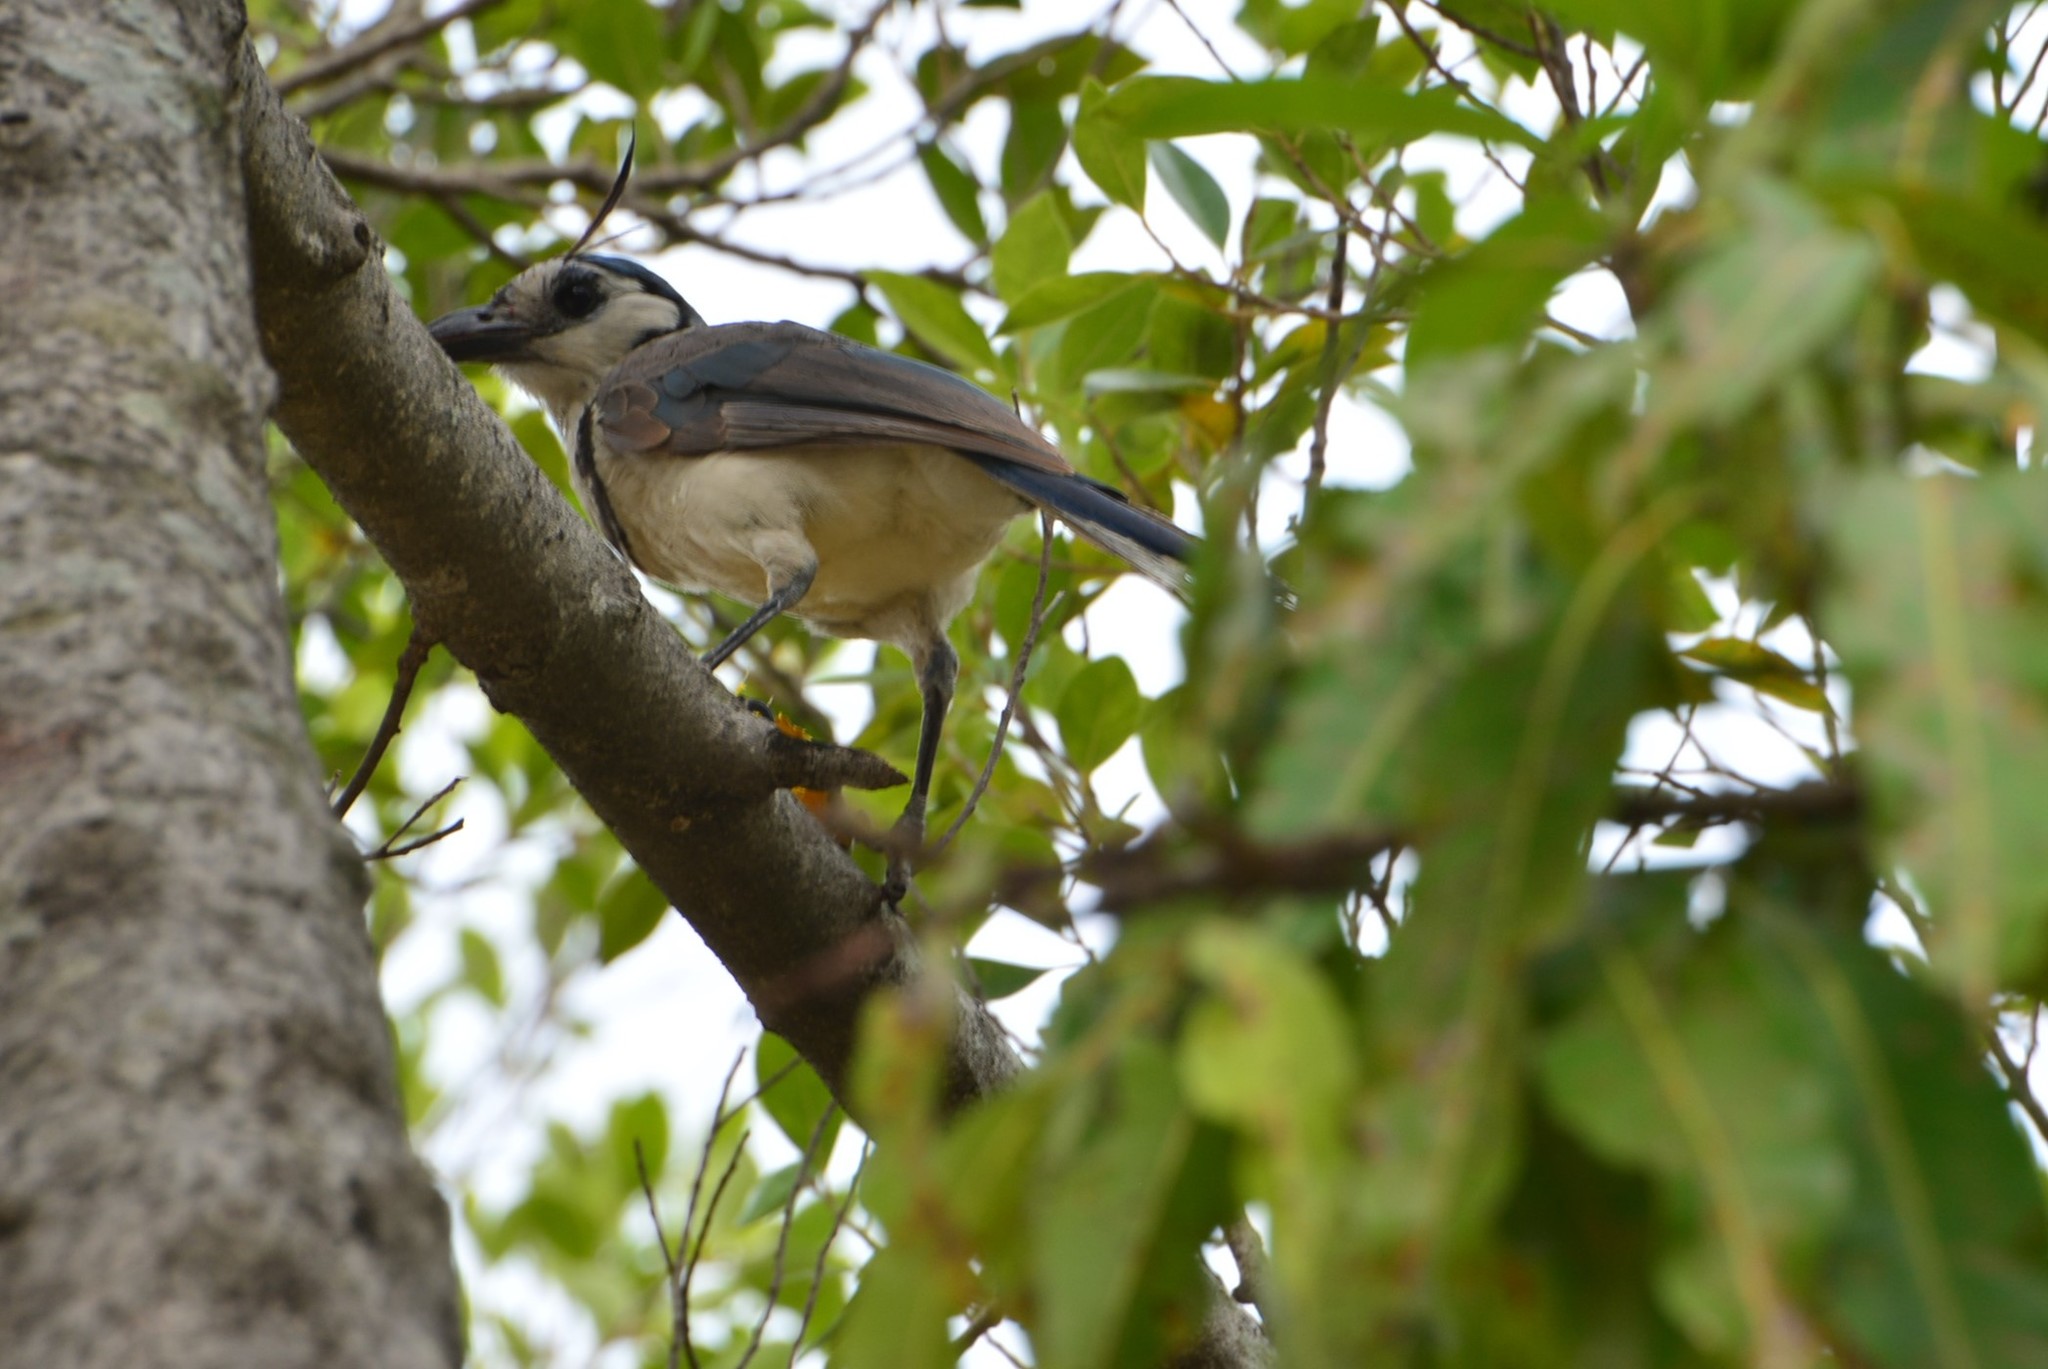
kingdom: Animalia
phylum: Chordata
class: Aves
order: Passeriformes
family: Corvidae
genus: Calocitta
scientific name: Calocitta formosa
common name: White-throated magpie-jay
